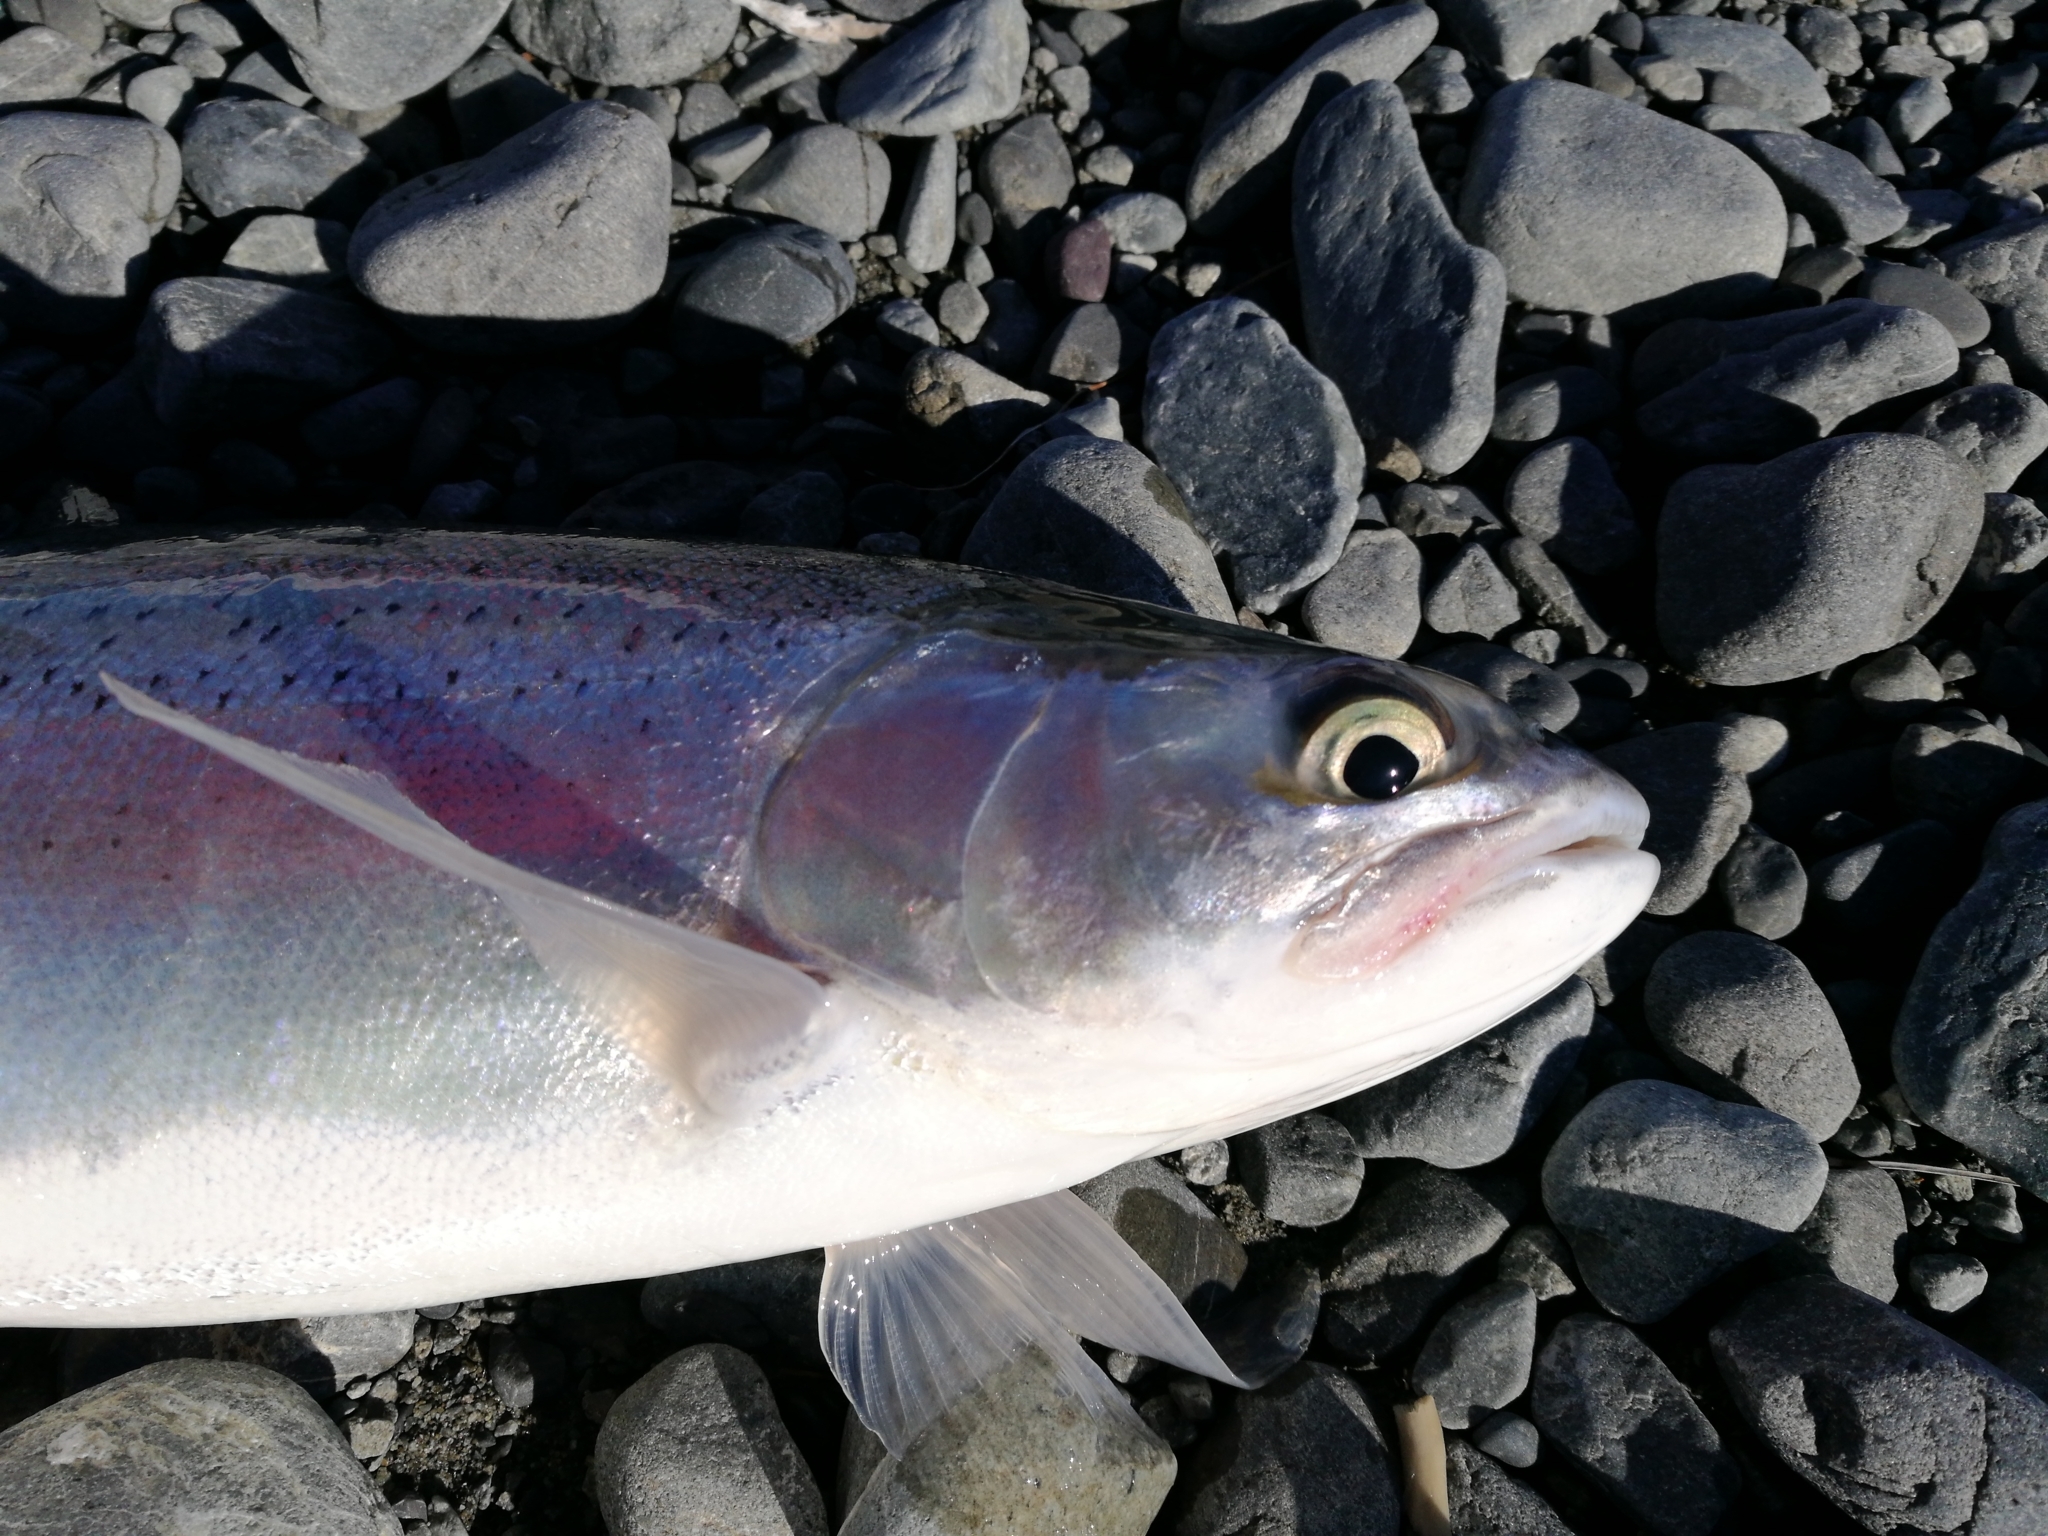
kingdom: Animalia
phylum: Chordata
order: Salmoniformes
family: Salmonidae
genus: Oncorhynchus
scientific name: Oncorhynchus mykiss
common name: Rainbow trout
